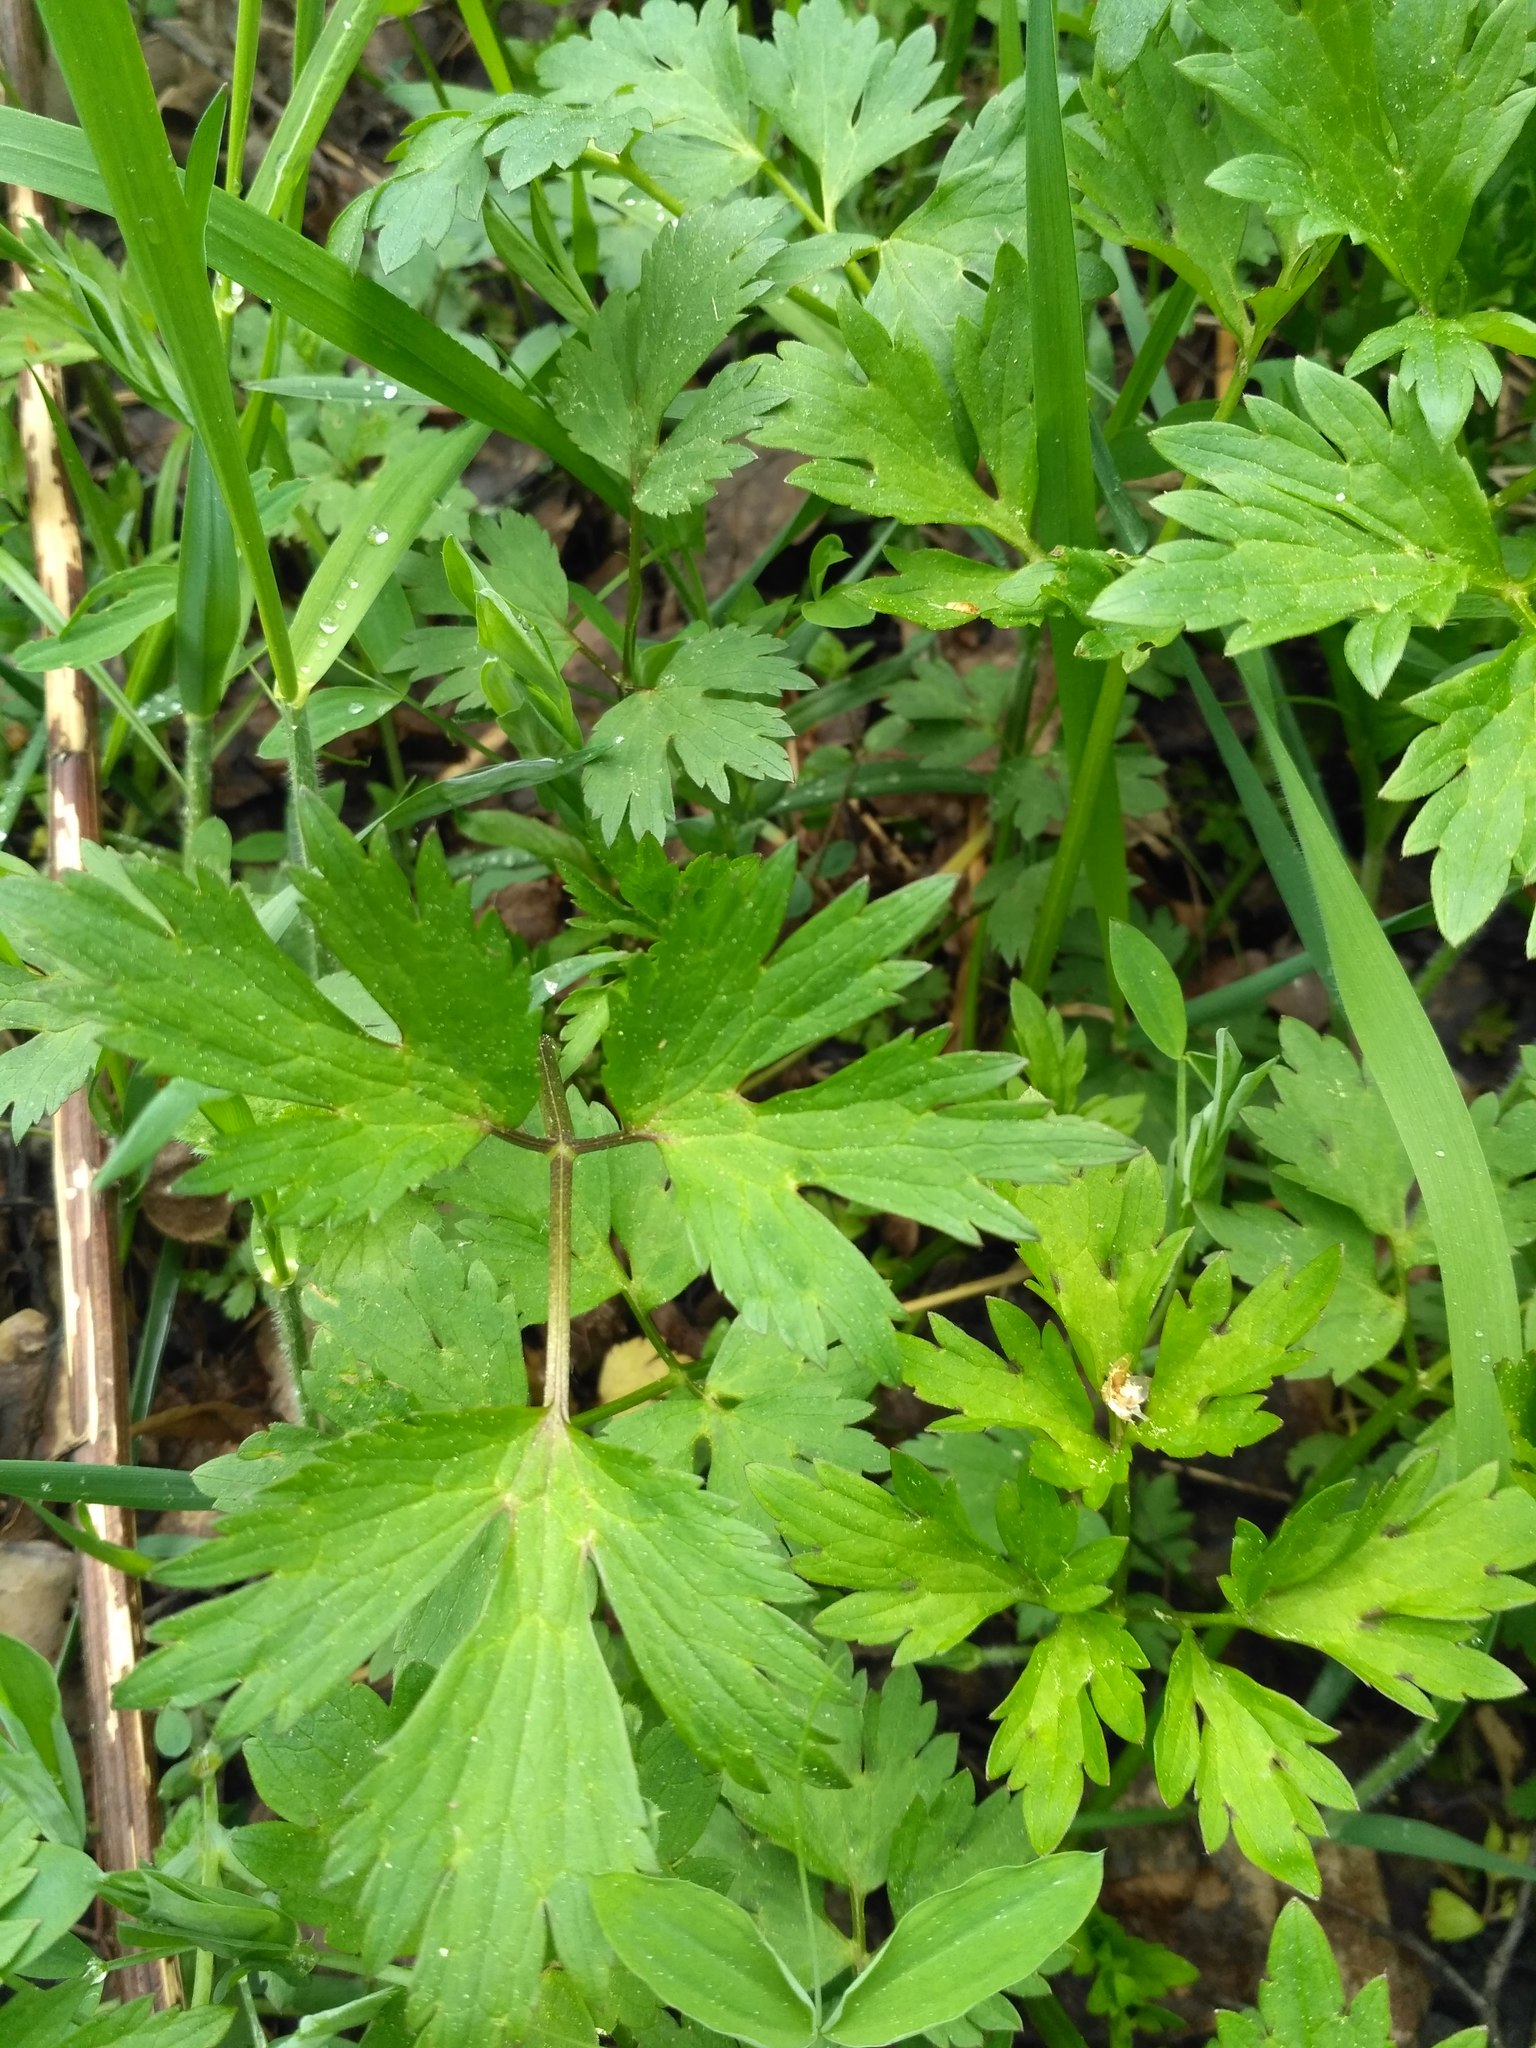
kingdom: Plantae
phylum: Tracheophyta
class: Magnoliopsida
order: Ranunculales
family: Ranunculaceae
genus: Ranunculus
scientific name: Ranunculus repens
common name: Creeping buttercup
